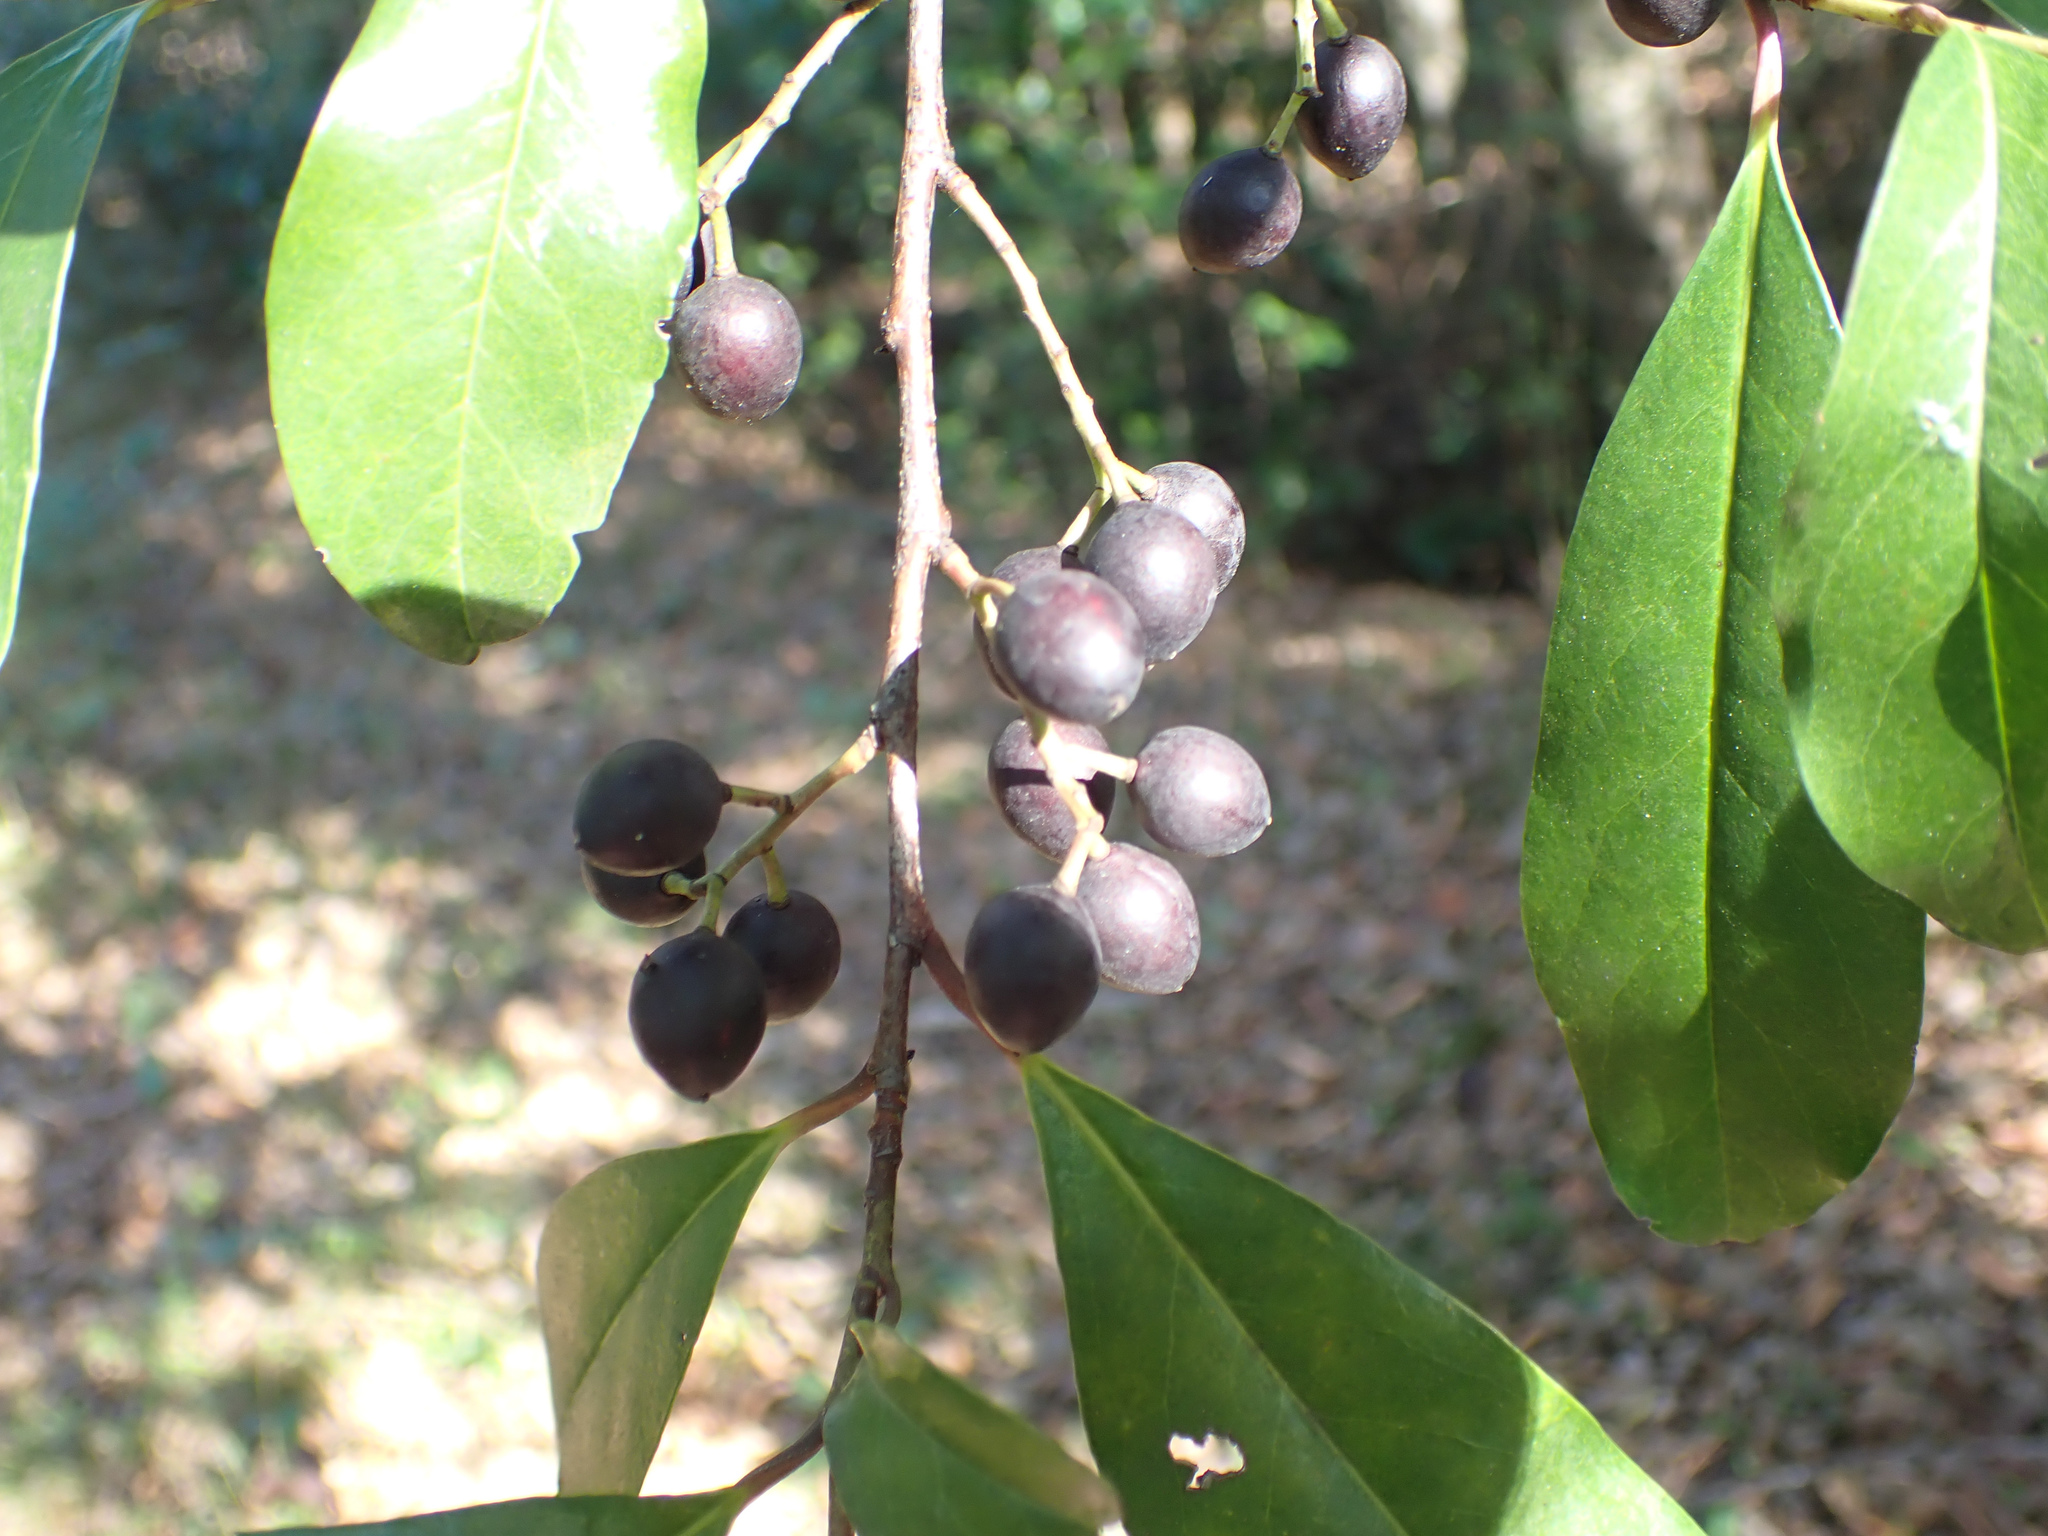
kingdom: Plantae
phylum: Tracheophyta
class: Magnoliopsida
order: Rosales
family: Rosaceae
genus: Prunus
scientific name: Prunus caroliniana
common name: Carolina laurel cherry
